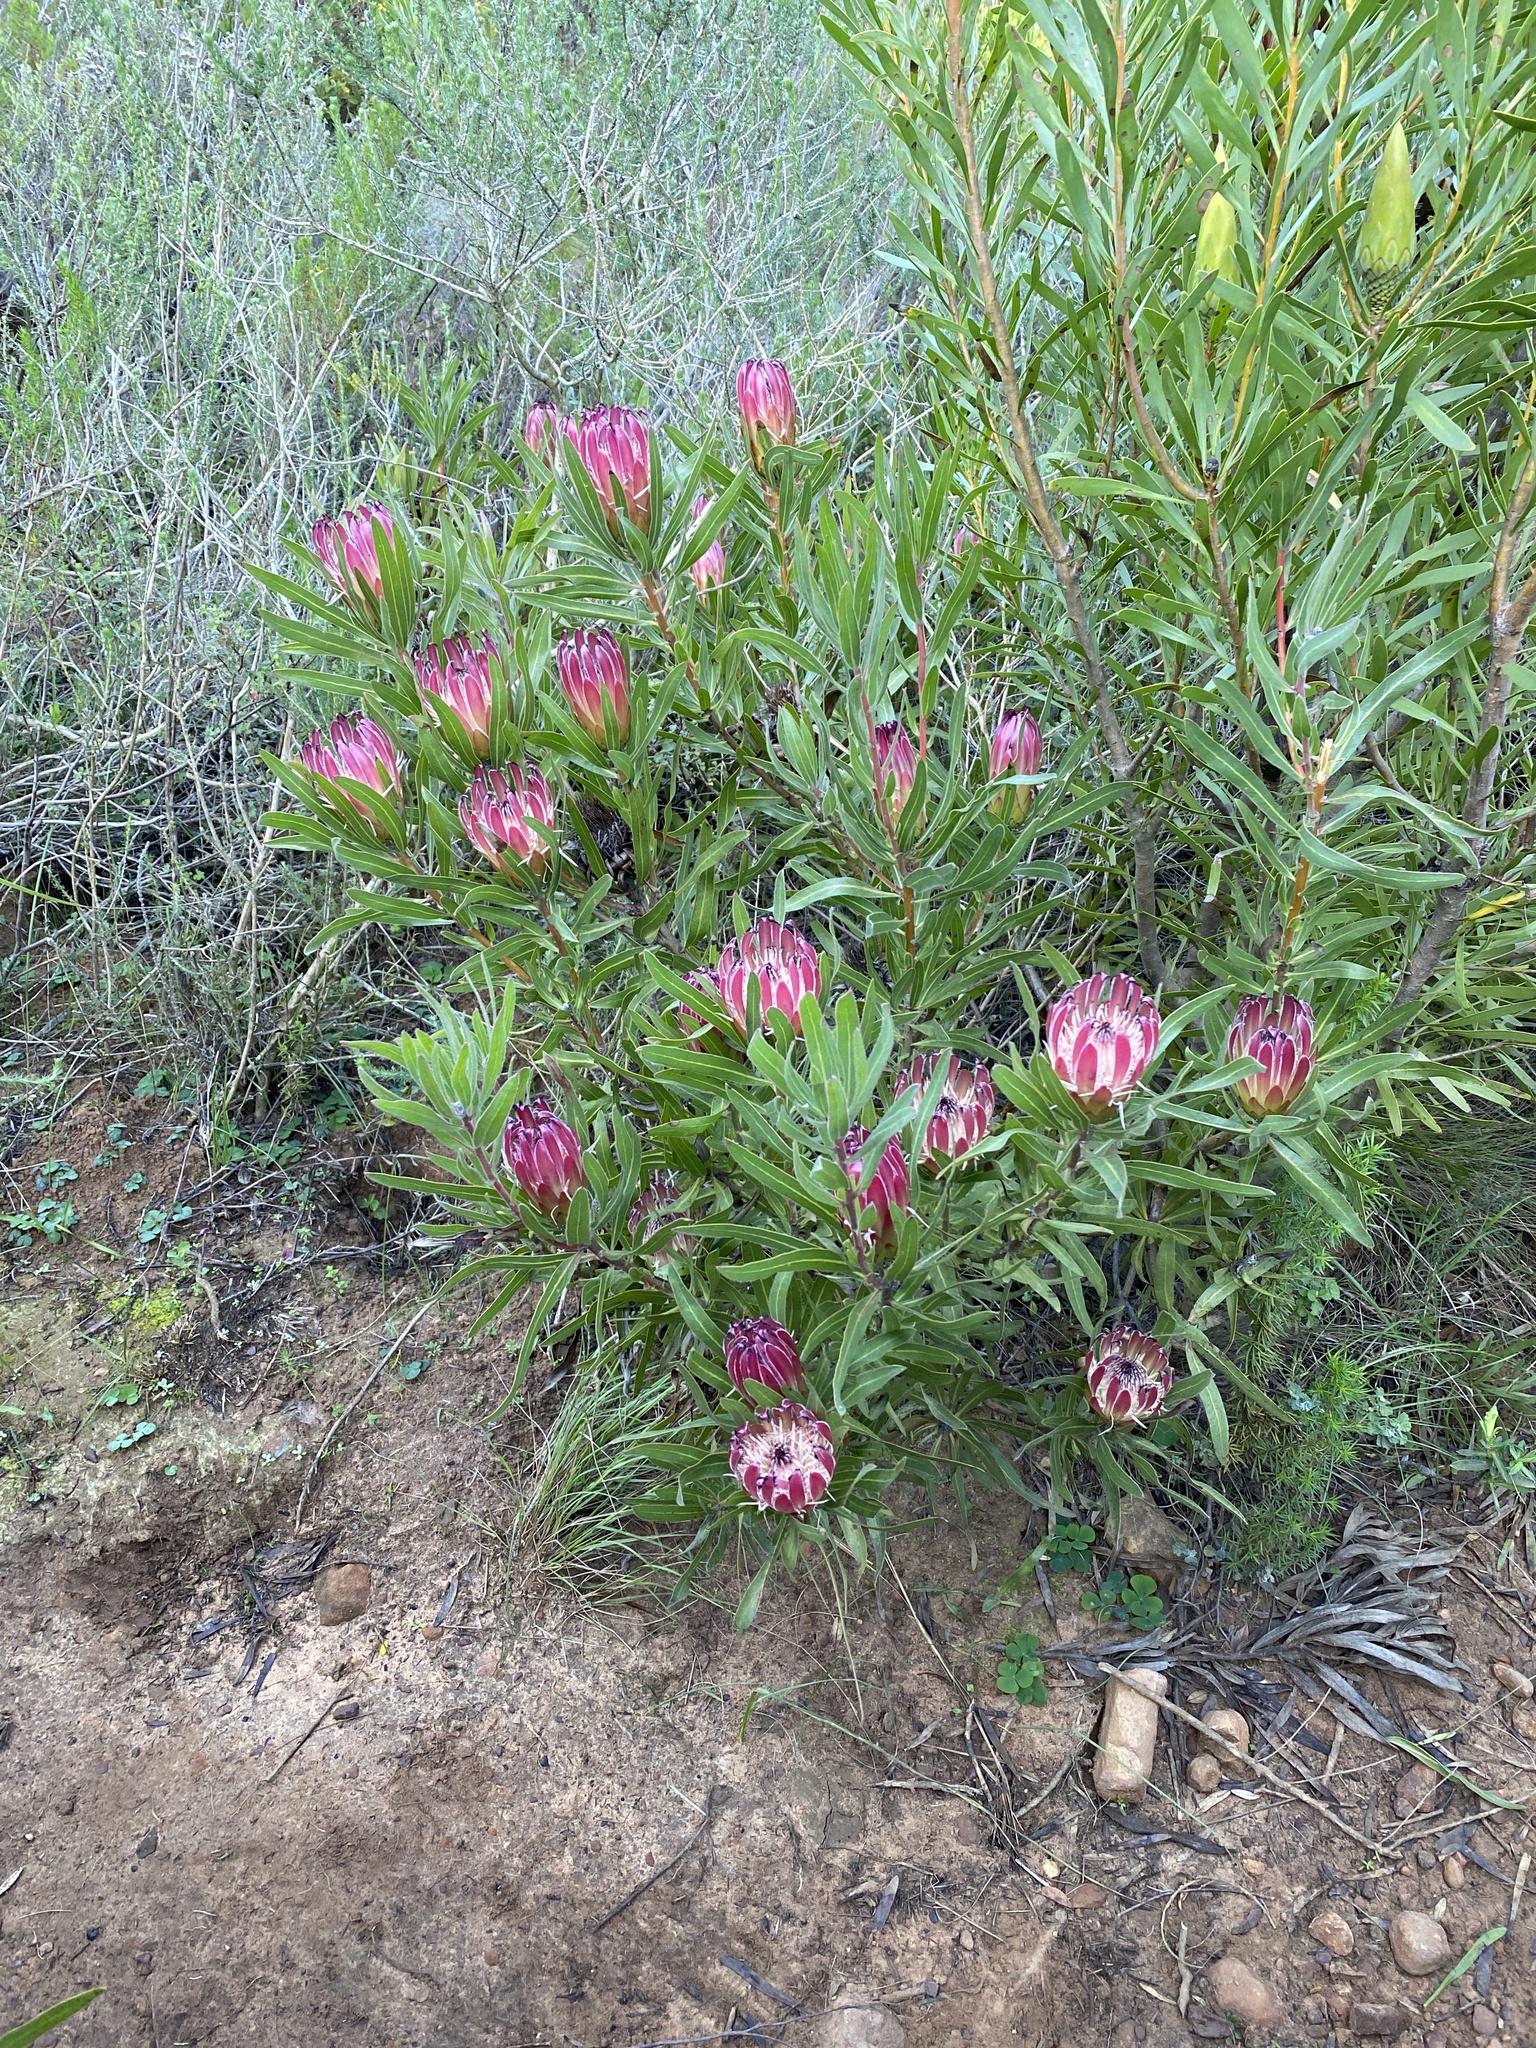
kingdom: Plantae
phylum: Tracheophyta
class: Magnoliopsida
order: Proteales
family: Proteaceae
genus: Protea
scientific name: Protea burchellii
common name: Burchell's sugarbush
